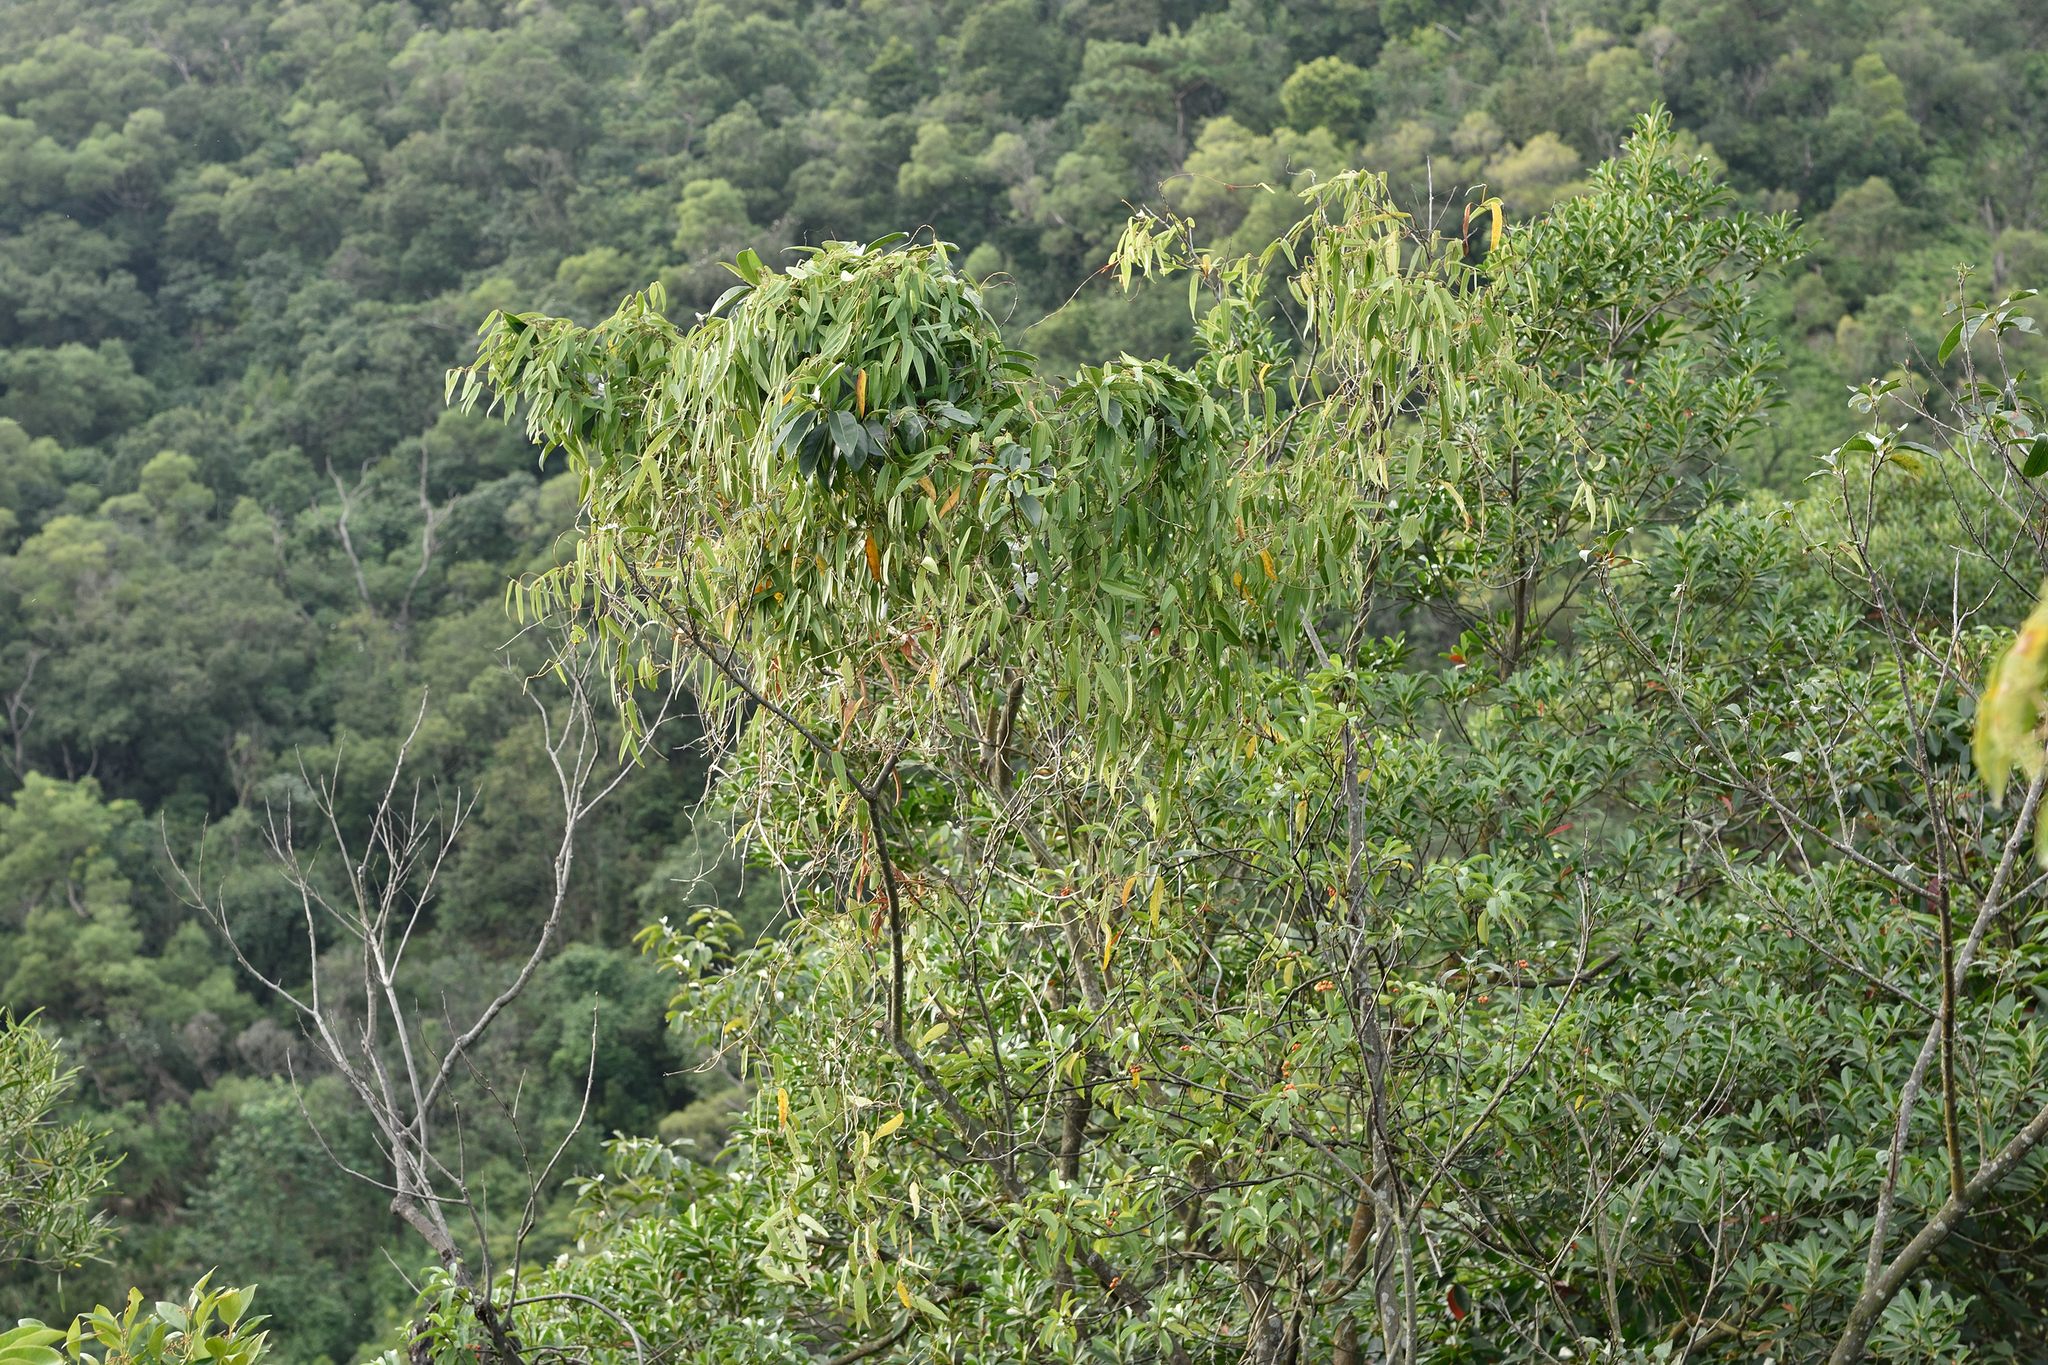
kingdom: Plantae
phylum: Tracheophyta
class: Liliopsida
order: Dioscoreales
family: Dioscoreaceae
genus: Dioscorea
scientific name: Dioscorea cirrhosa
